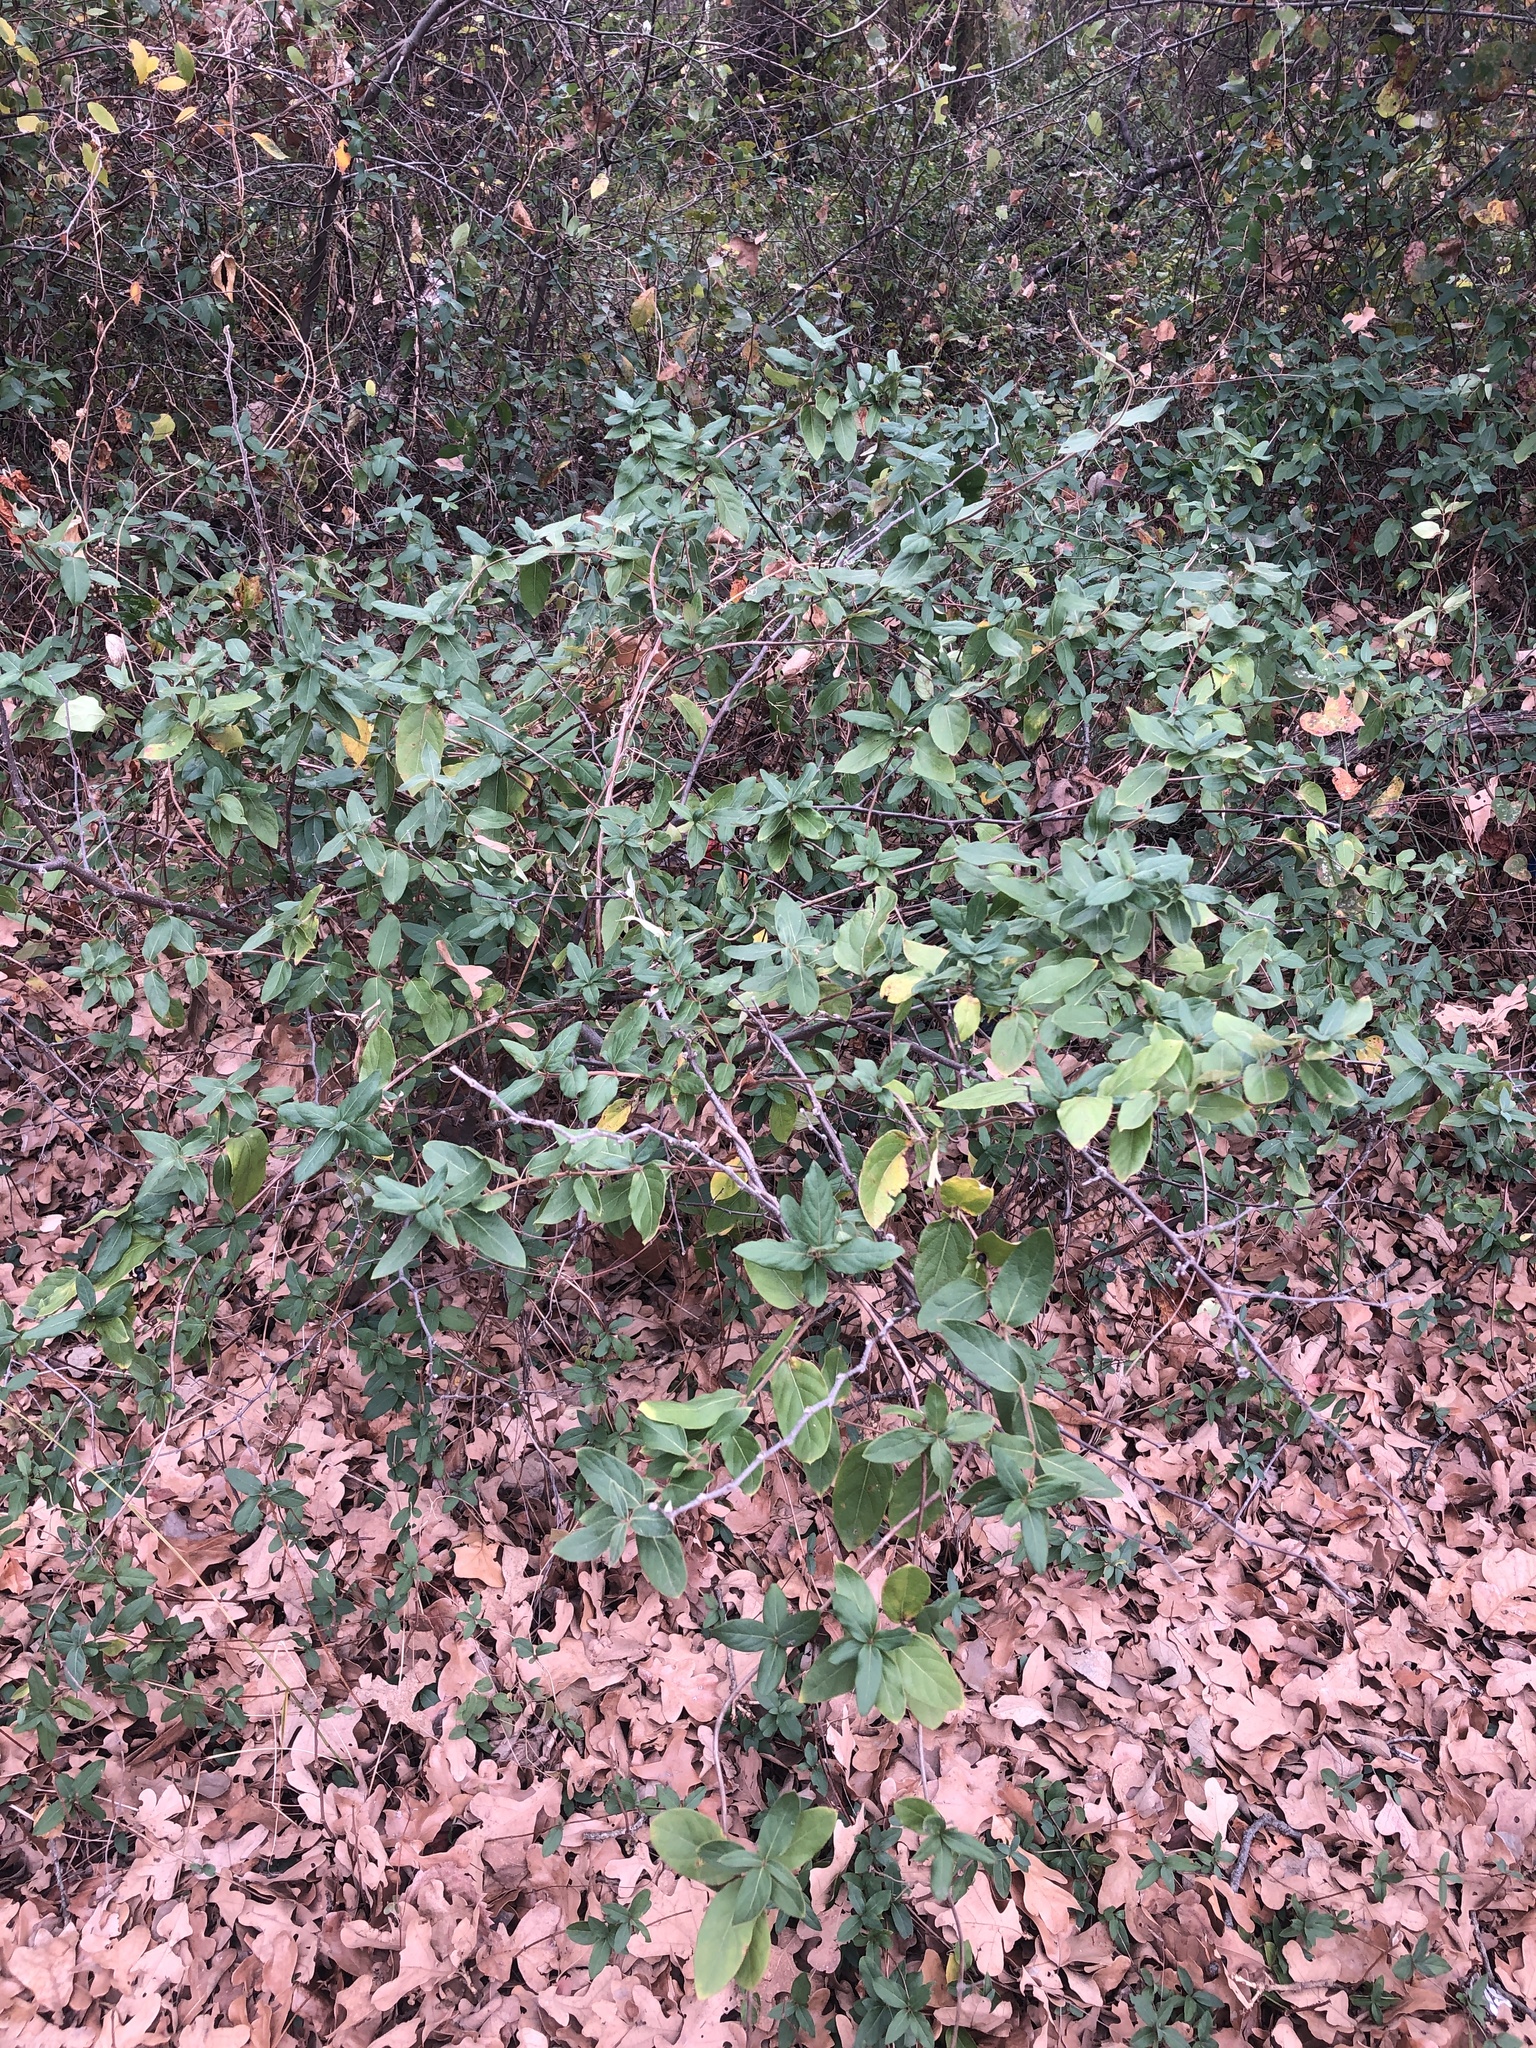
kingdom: Plantae
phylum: Tracheophyta
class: Magnoliopsida
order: Dipsacales
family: Caprifoliaceae
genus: Lonicera
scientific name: Lonicera japonica
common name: Japanese honeysuckle
